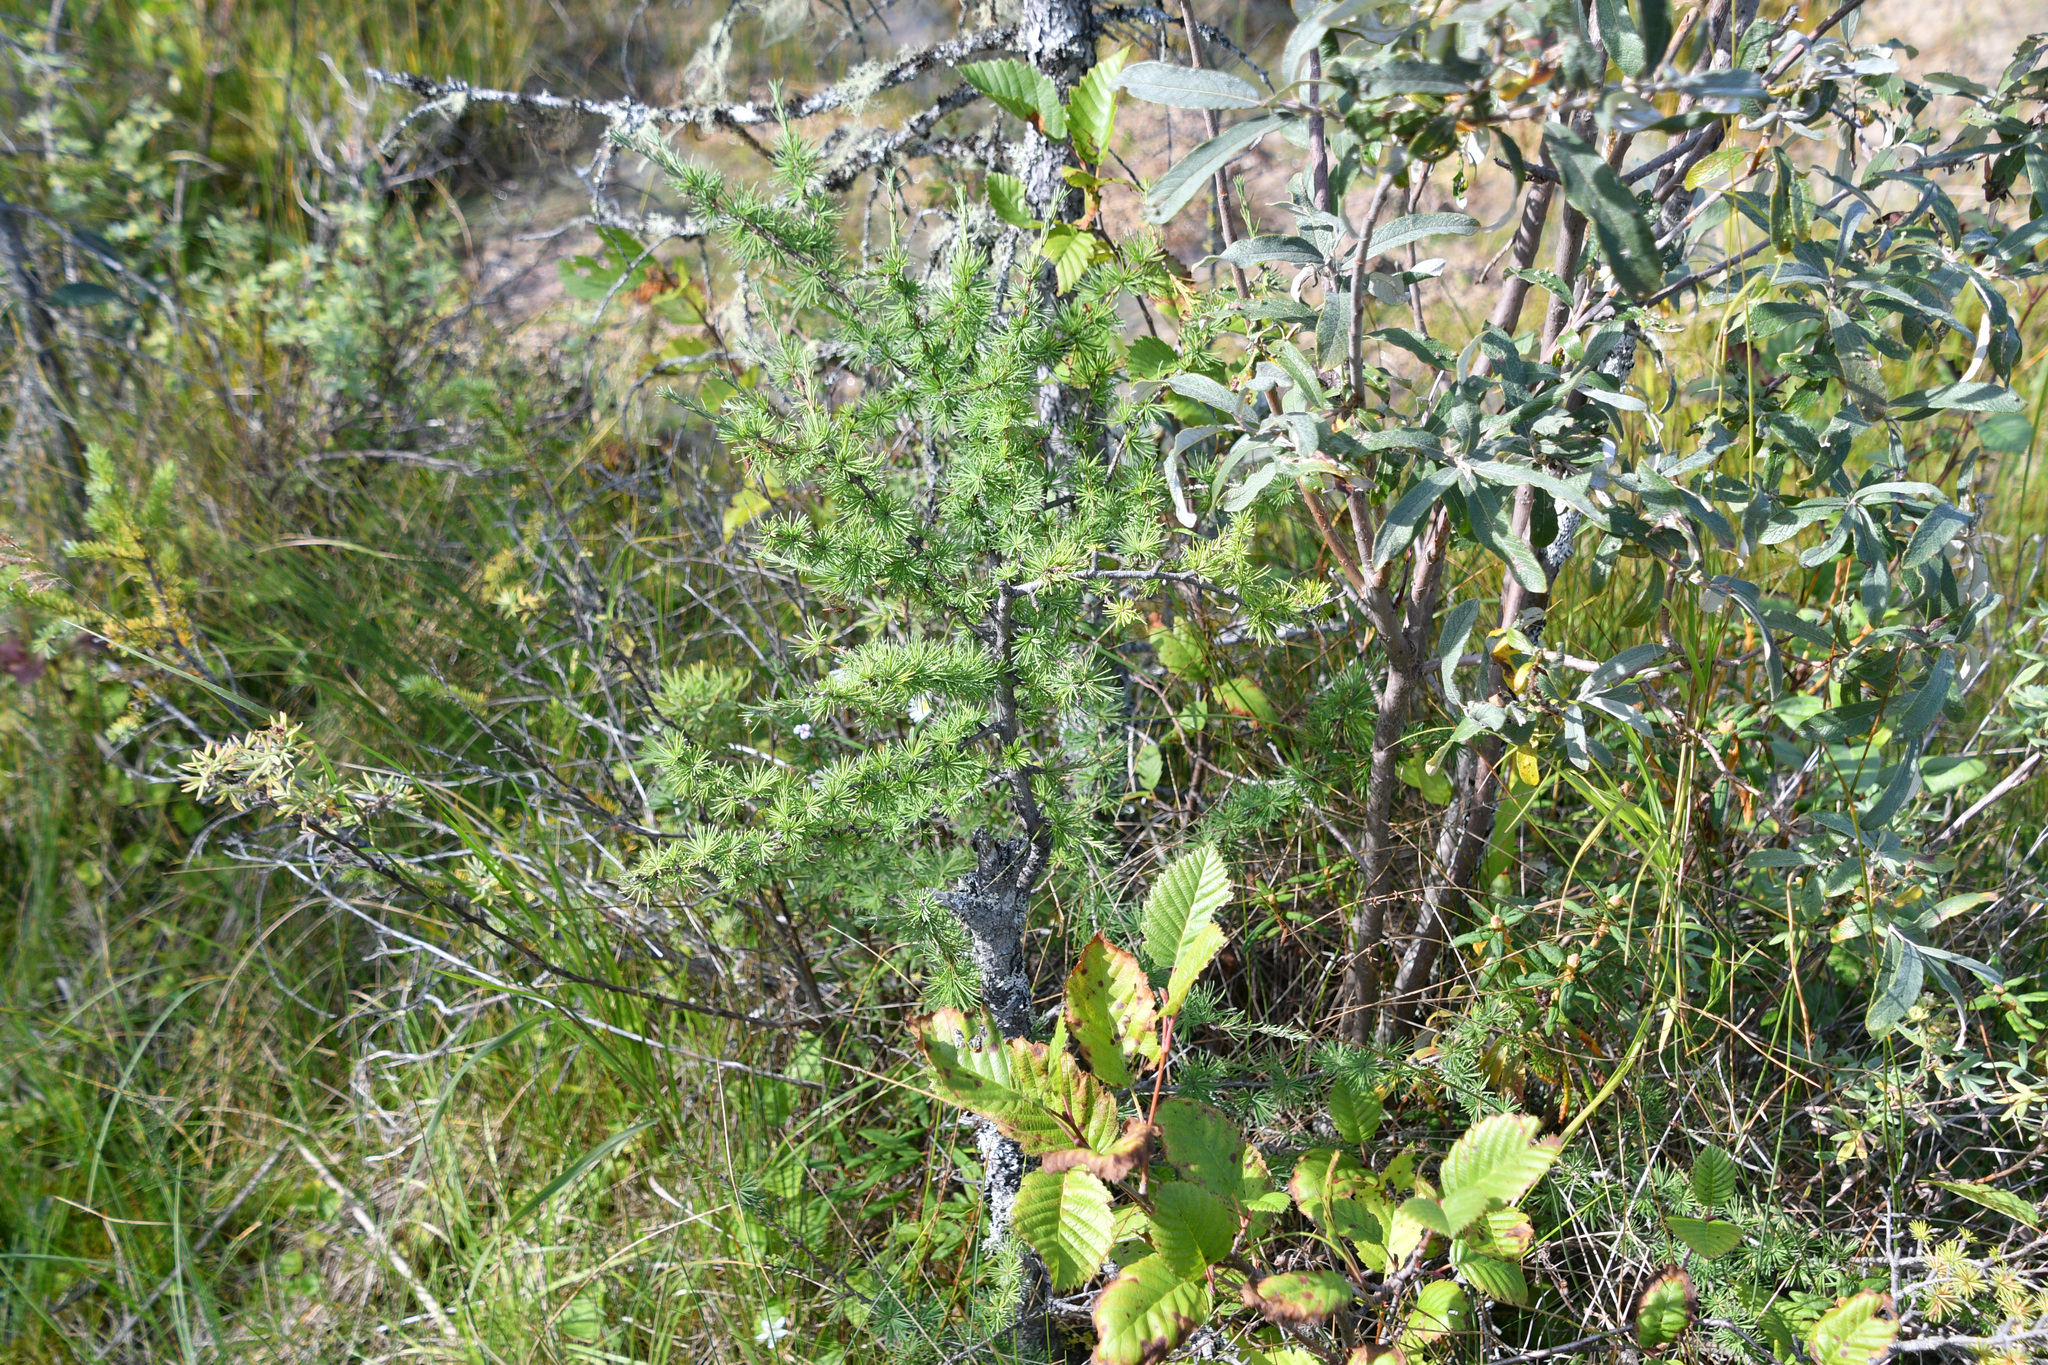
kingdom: Plantae
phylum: Tracheophyta
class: Pinopsida
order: Pinales
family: Pinaceae
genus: Larix
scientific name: Larix laricina
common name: American larch
